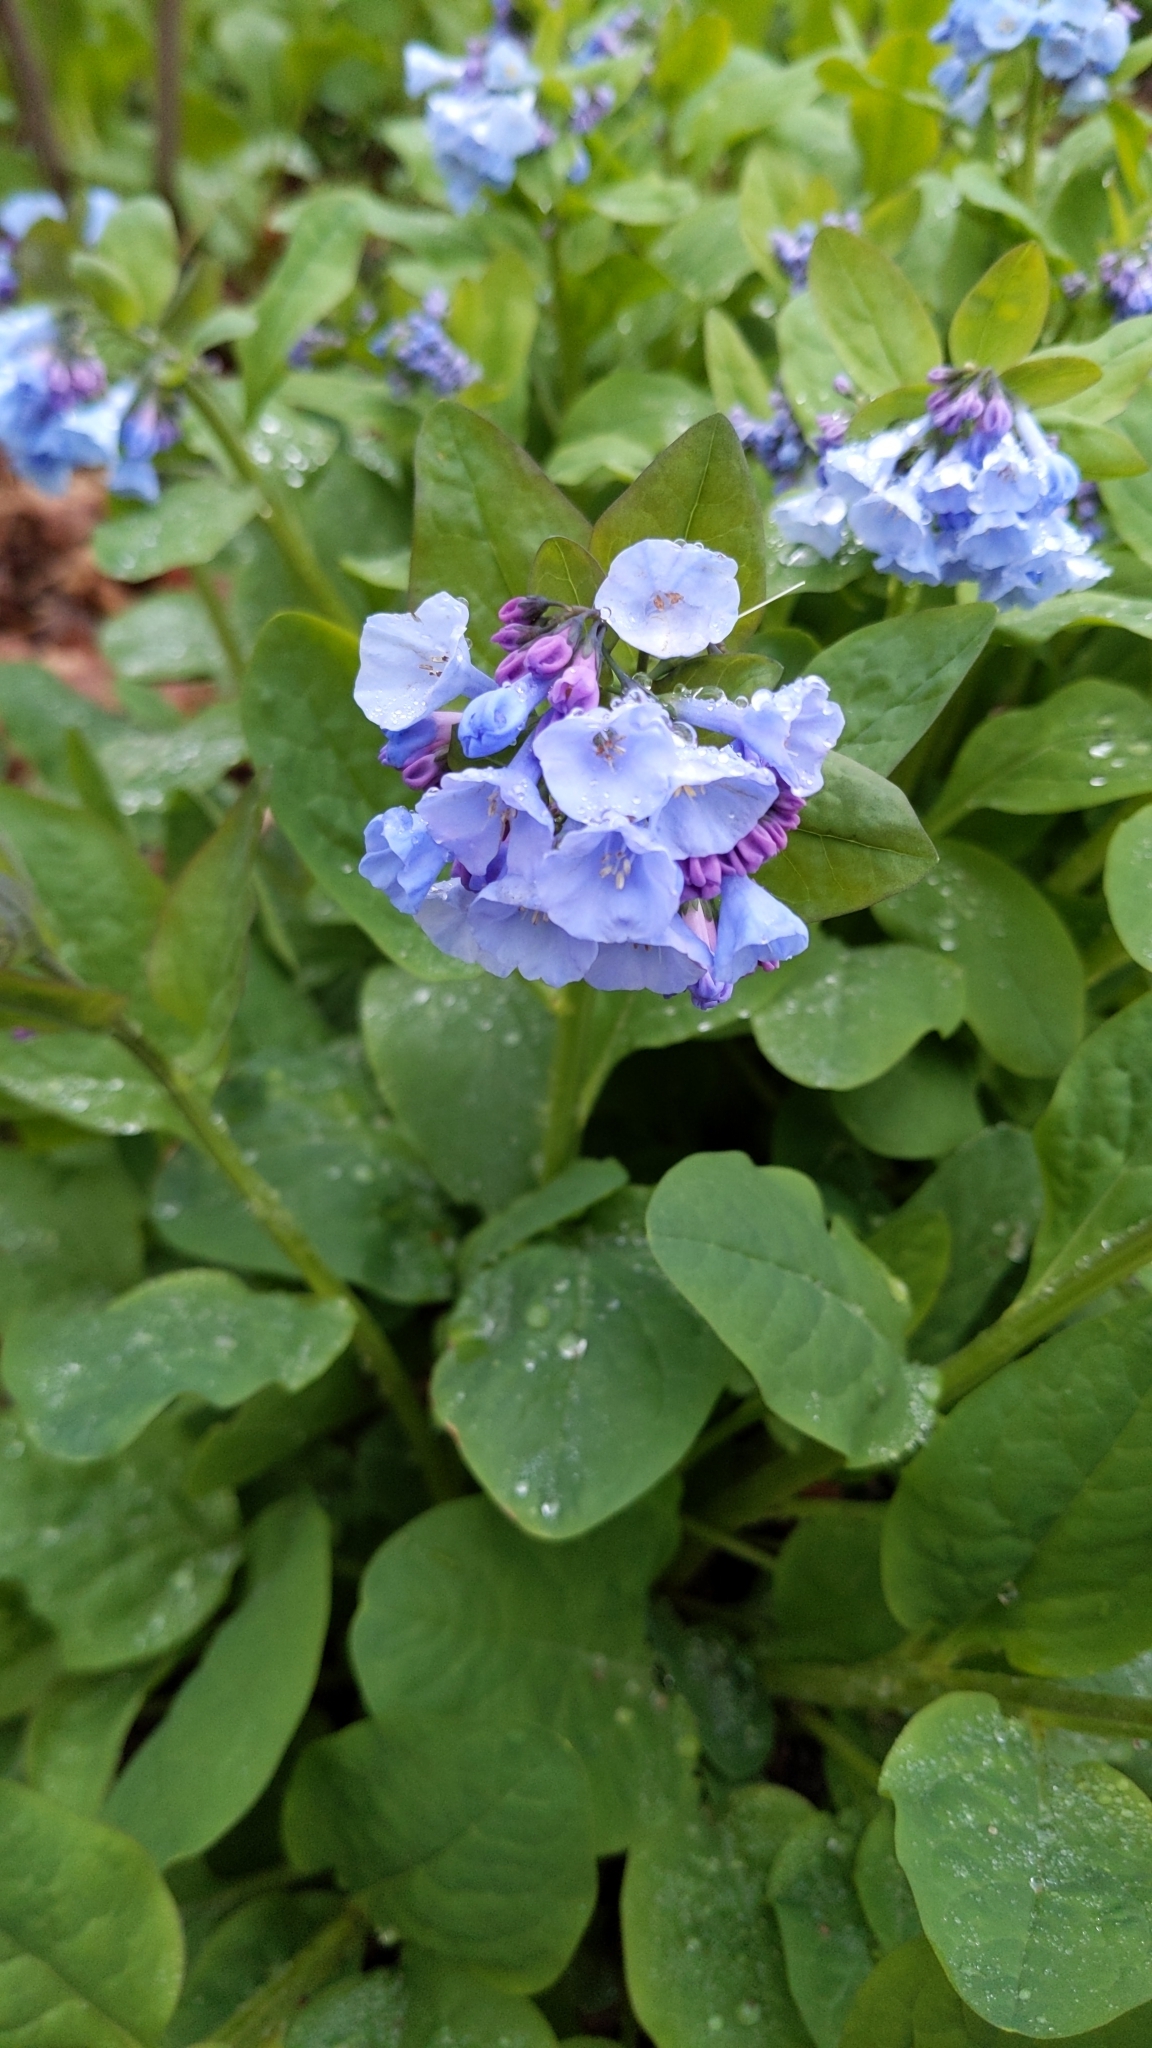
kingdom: Plantae
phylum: Tracheophyta
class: Magnoliopsida
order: Boraginales
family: Boraginaceae
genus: Mertensia
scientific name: Mertensia virginica
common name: Virginia bluebells
